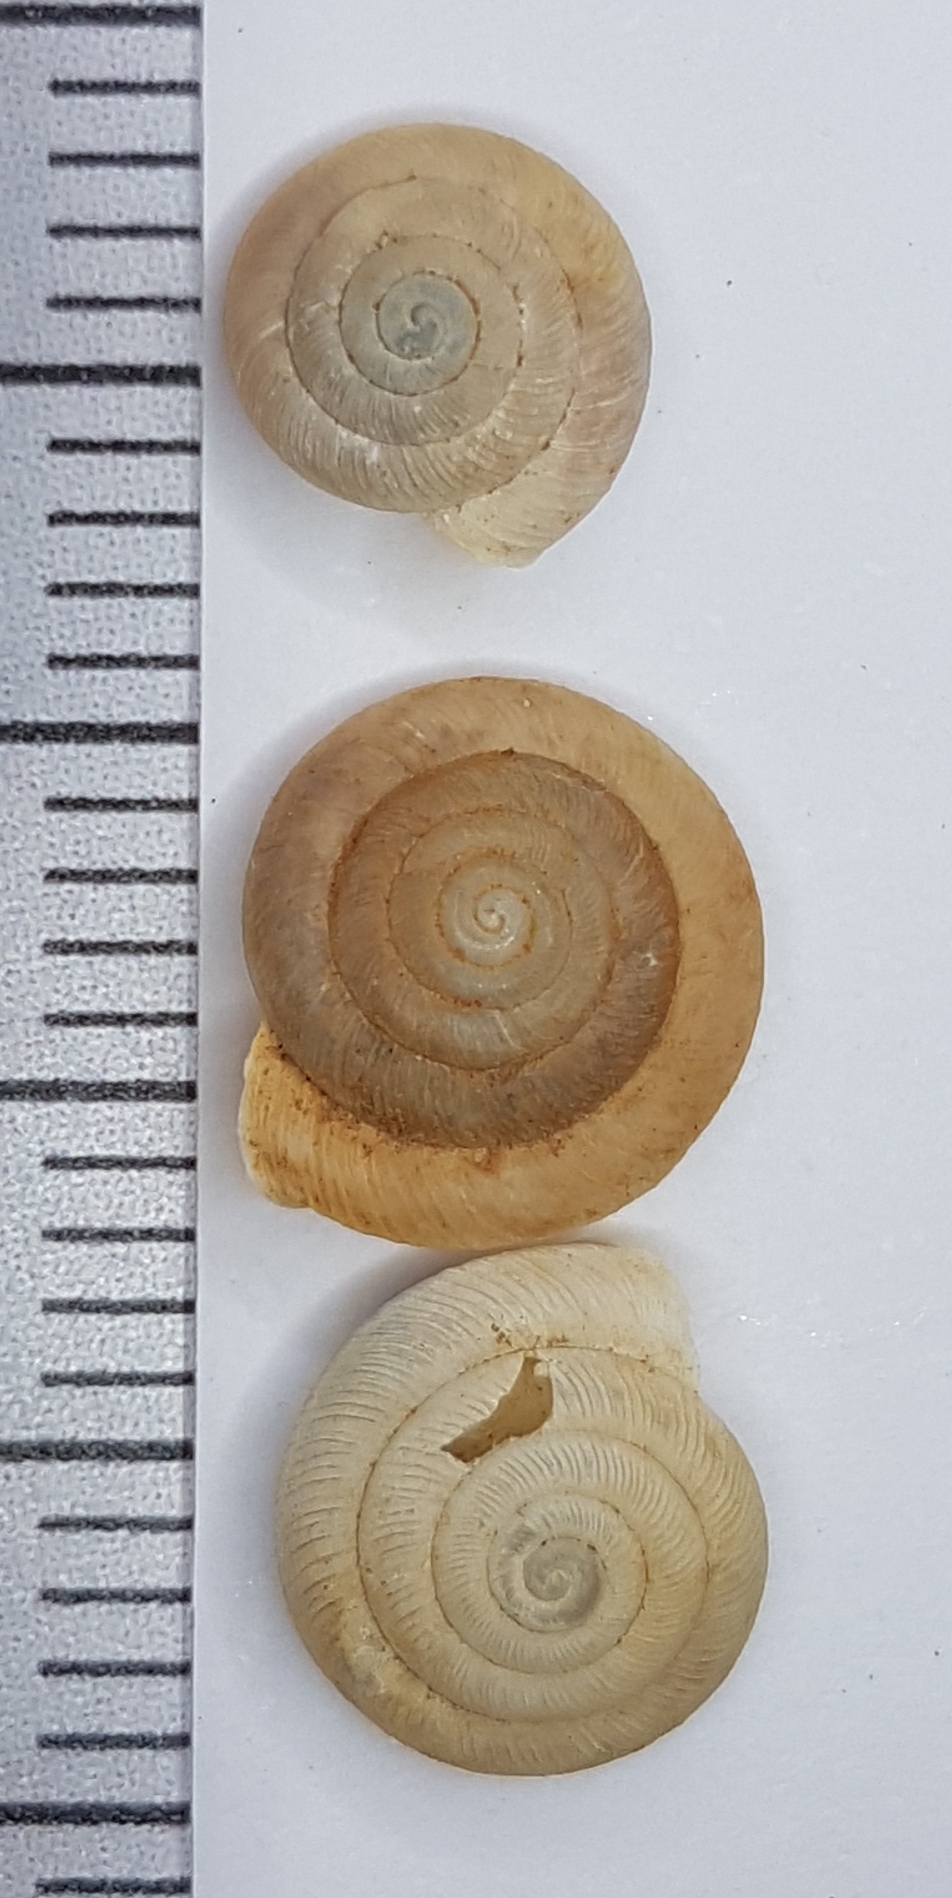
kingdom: Animalia
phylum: Mollusca
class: Gastropoda
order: Stylommatophora
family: Trissexodontidae
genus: Caracollina
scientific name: Caracollina lenticula
